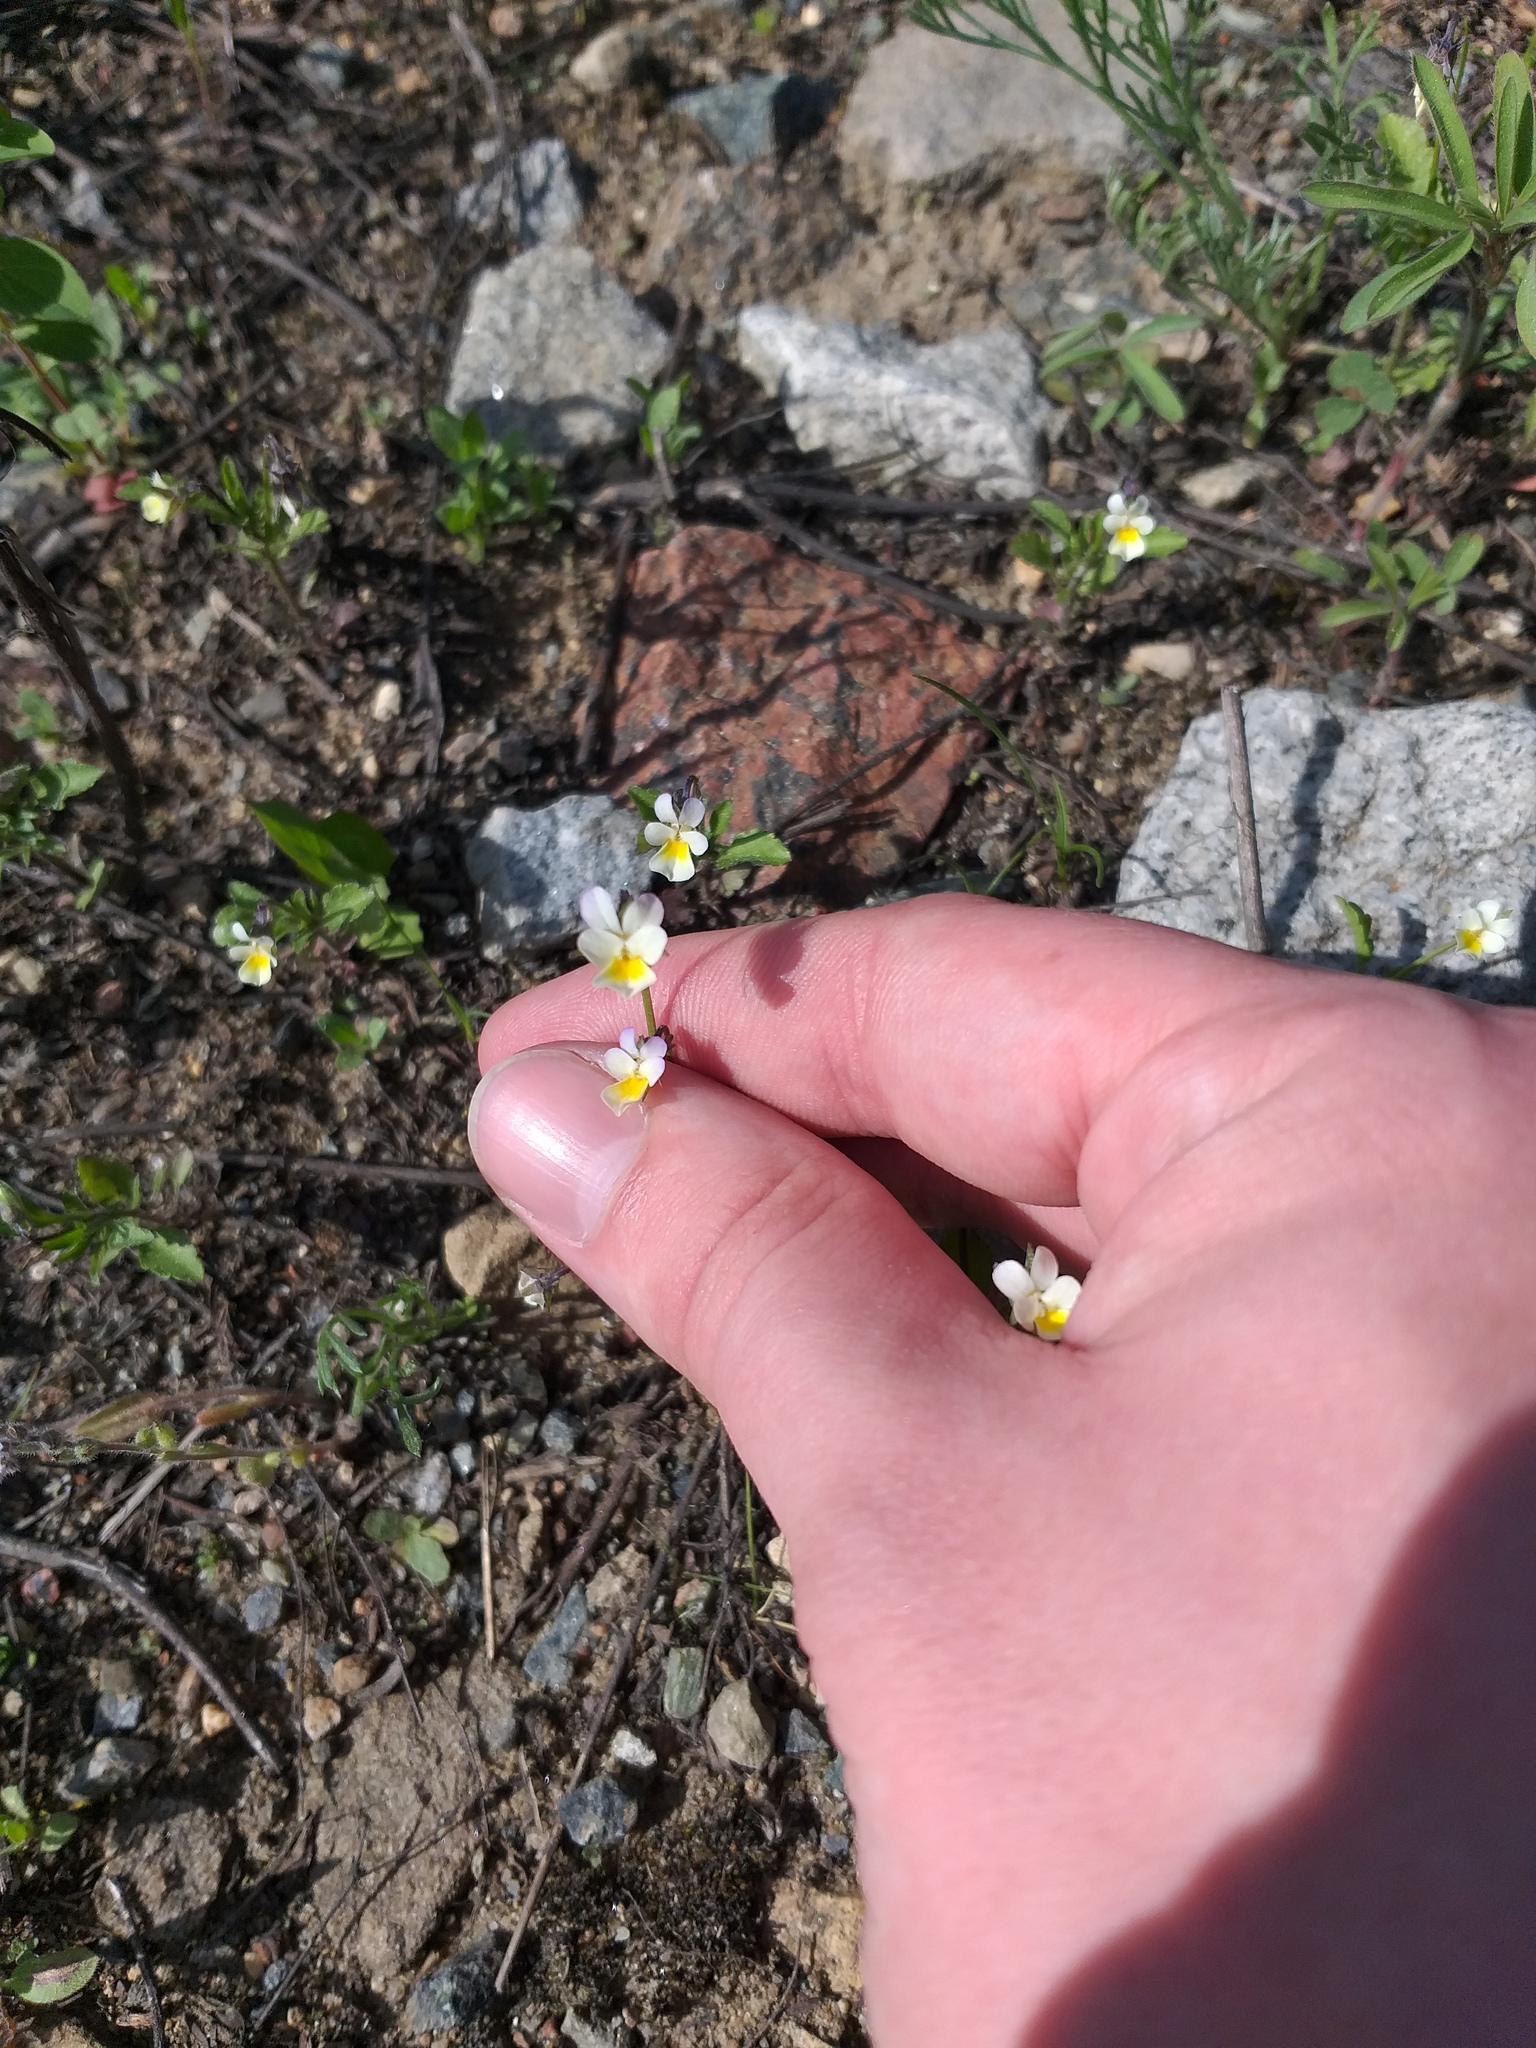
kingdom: Plantae
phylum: Tracheophyta
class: Magnoliopsida
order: Malpighiales
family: Violaceae
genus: Viola
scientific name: Viola arvensis
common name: Field pansy
